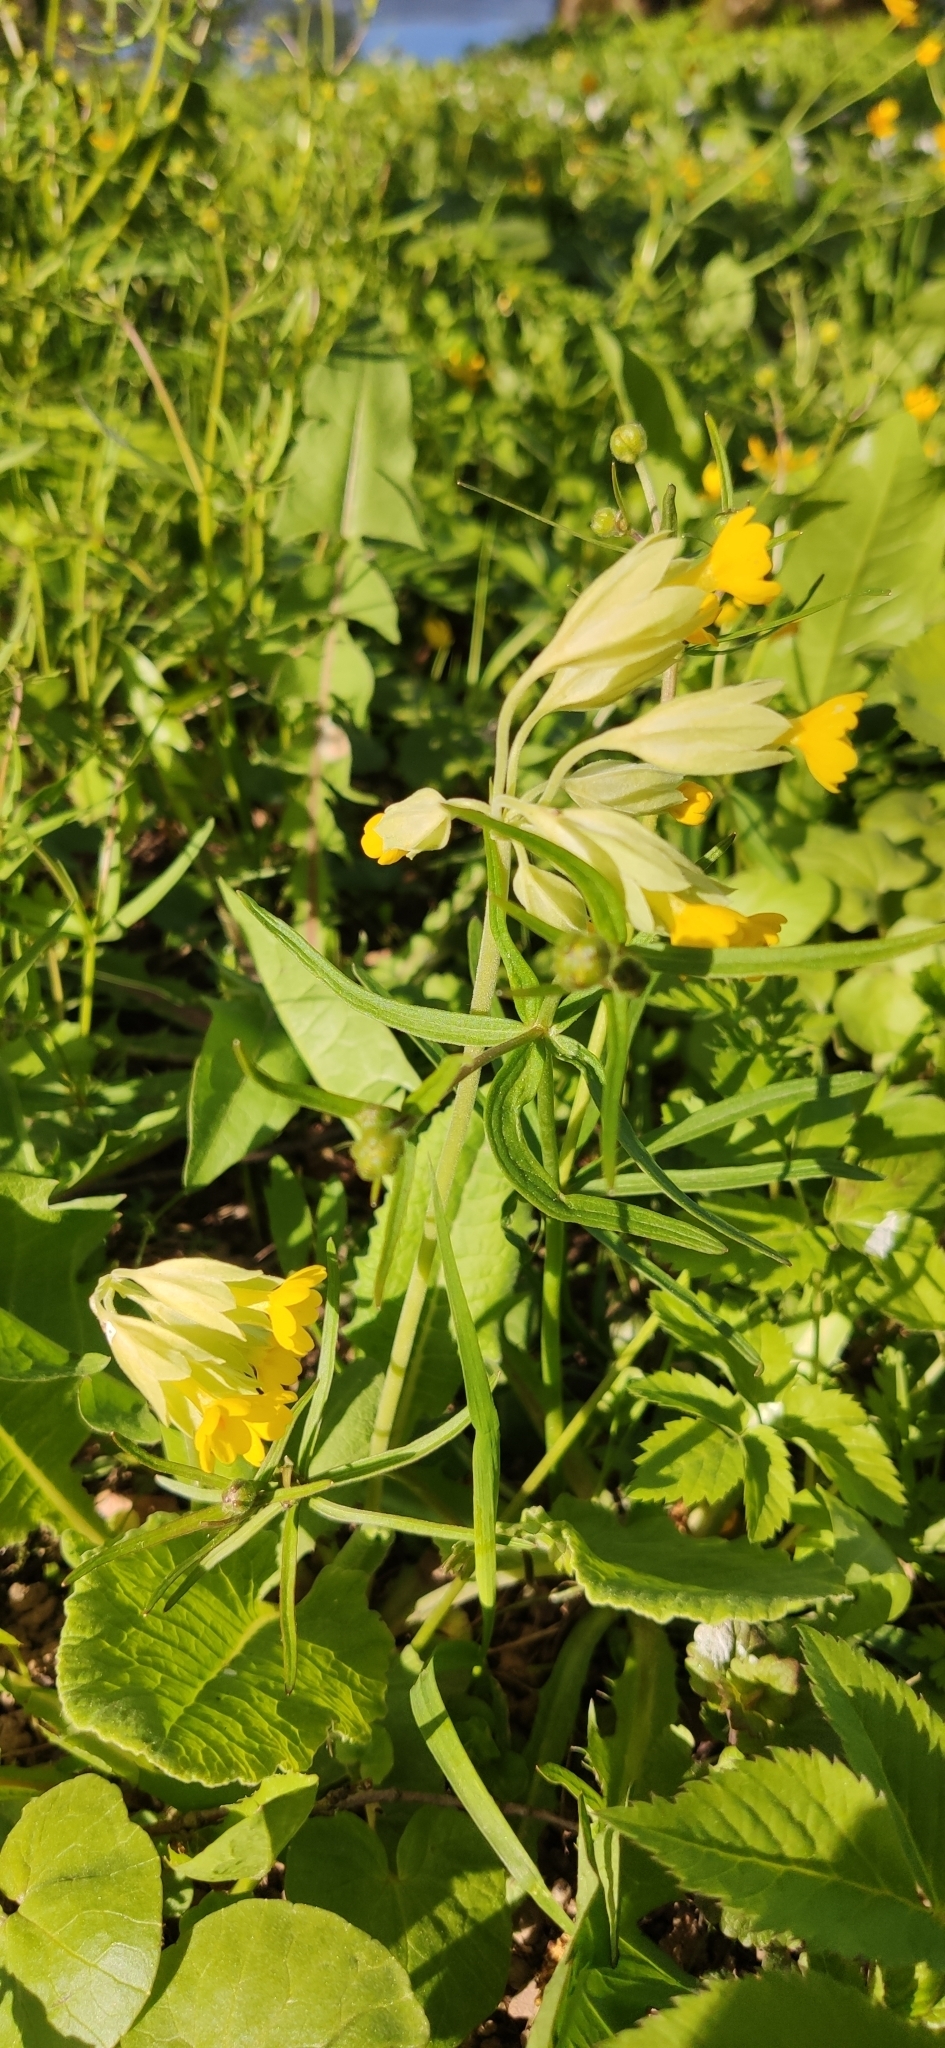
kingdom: Plantae
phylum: Tracheophyta
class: Magnoliopsida
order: Ericales
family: Primulaceae
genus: Primula
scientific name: Primula veris
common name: Cowslip
